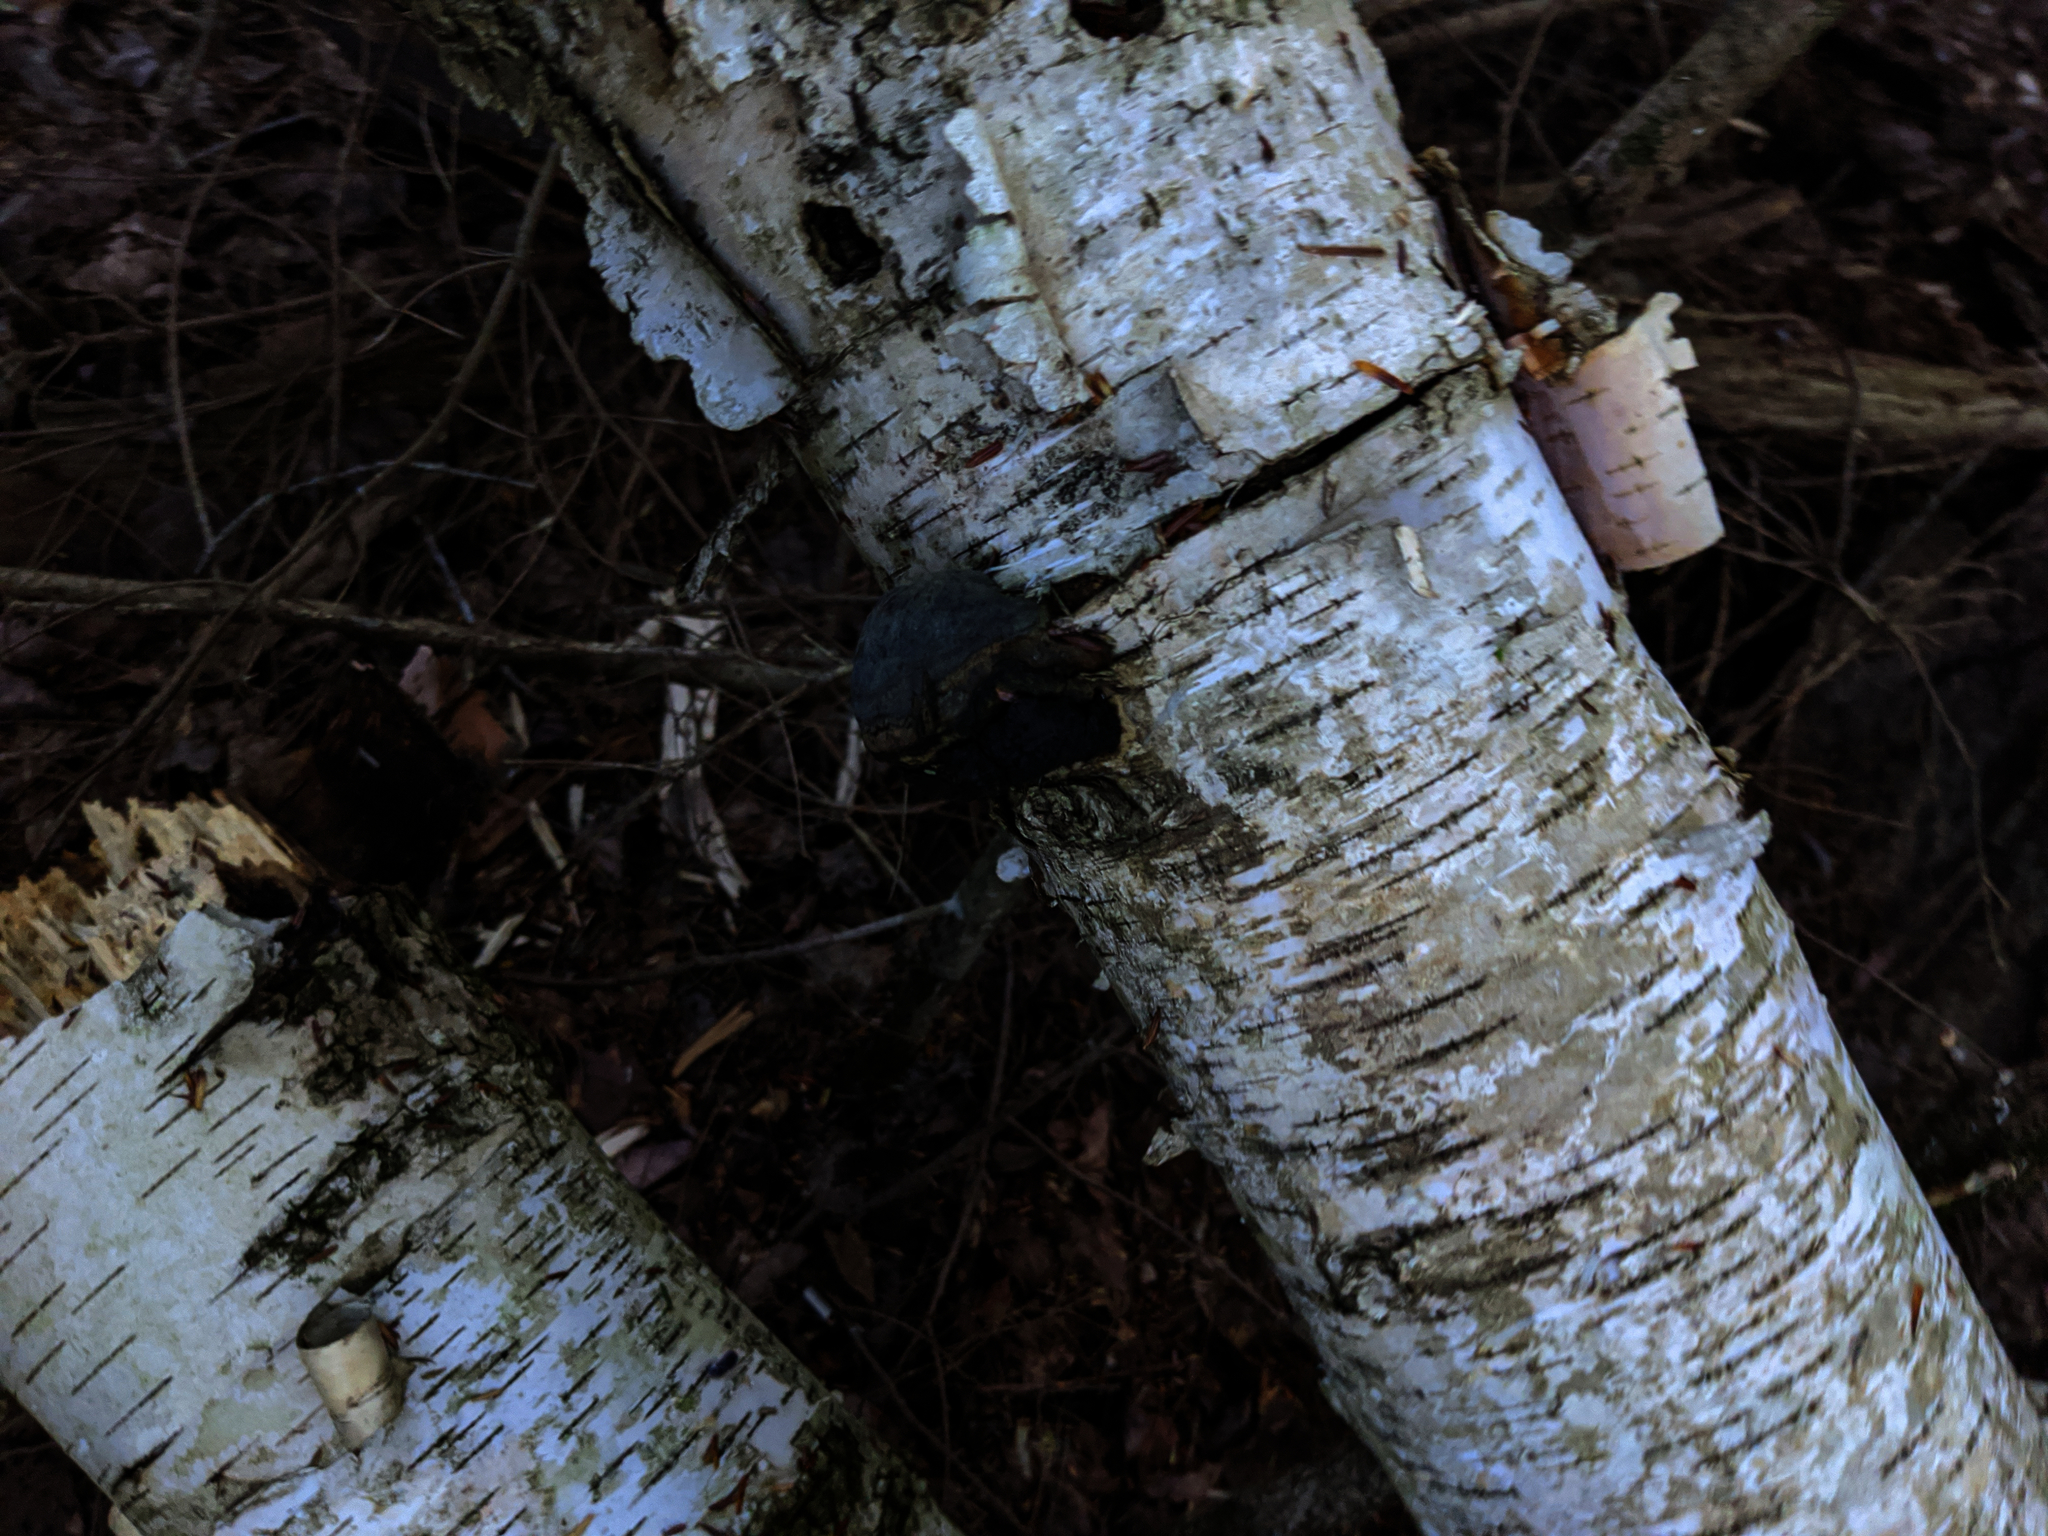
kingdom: Plantae
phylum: Tracheophyta
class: Magnoliopsida
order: Fagales
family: Betulaceae
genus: Betula
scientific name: Betula papyrifera
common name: Paper birch
